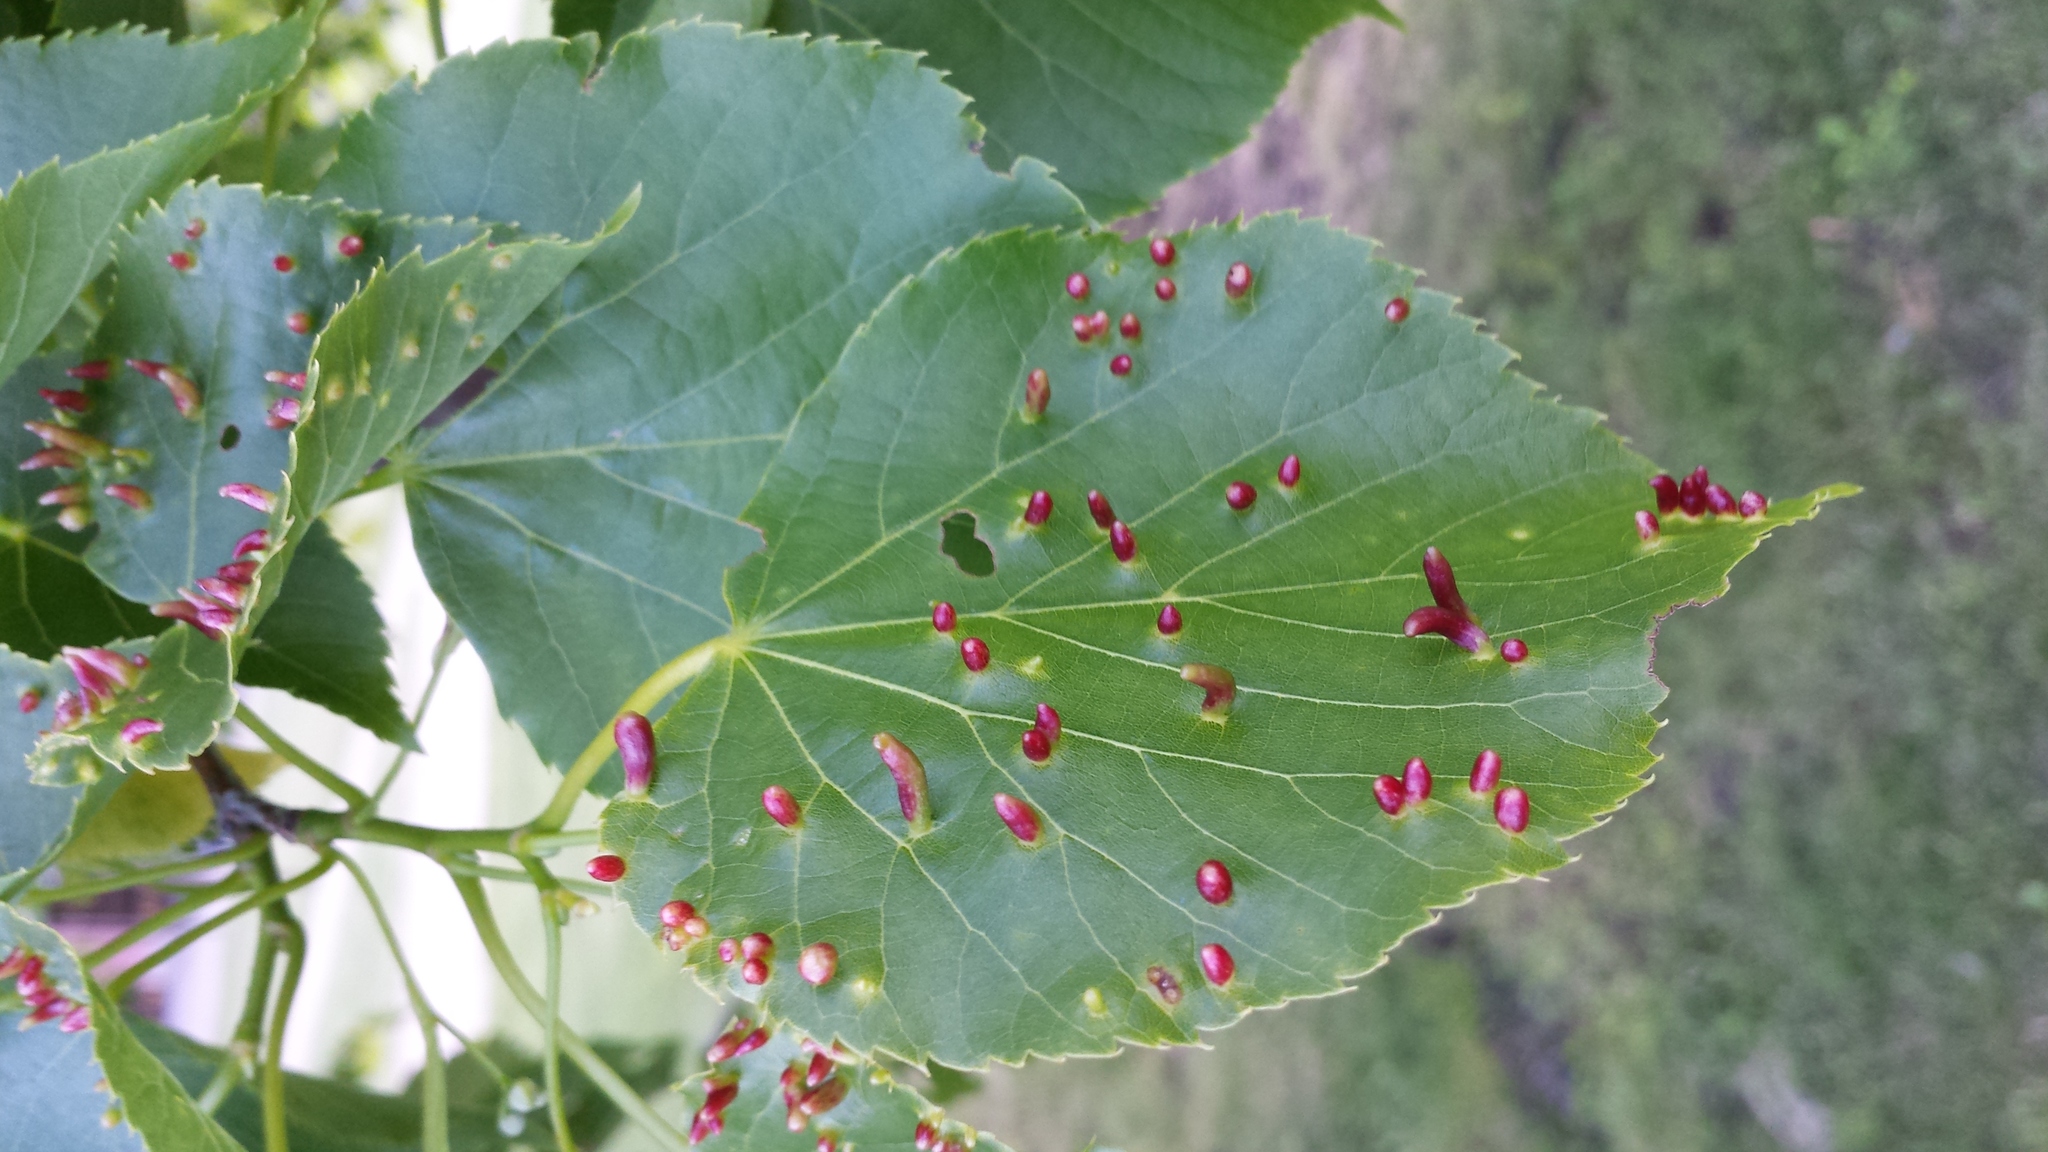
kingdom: Animalia
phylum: Arthropoda
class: Arachnida
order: Trombidiformes
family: Eriophyidae
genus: Eriophyes
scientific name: Eriophyes tiliae
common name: Red nail gall mite
